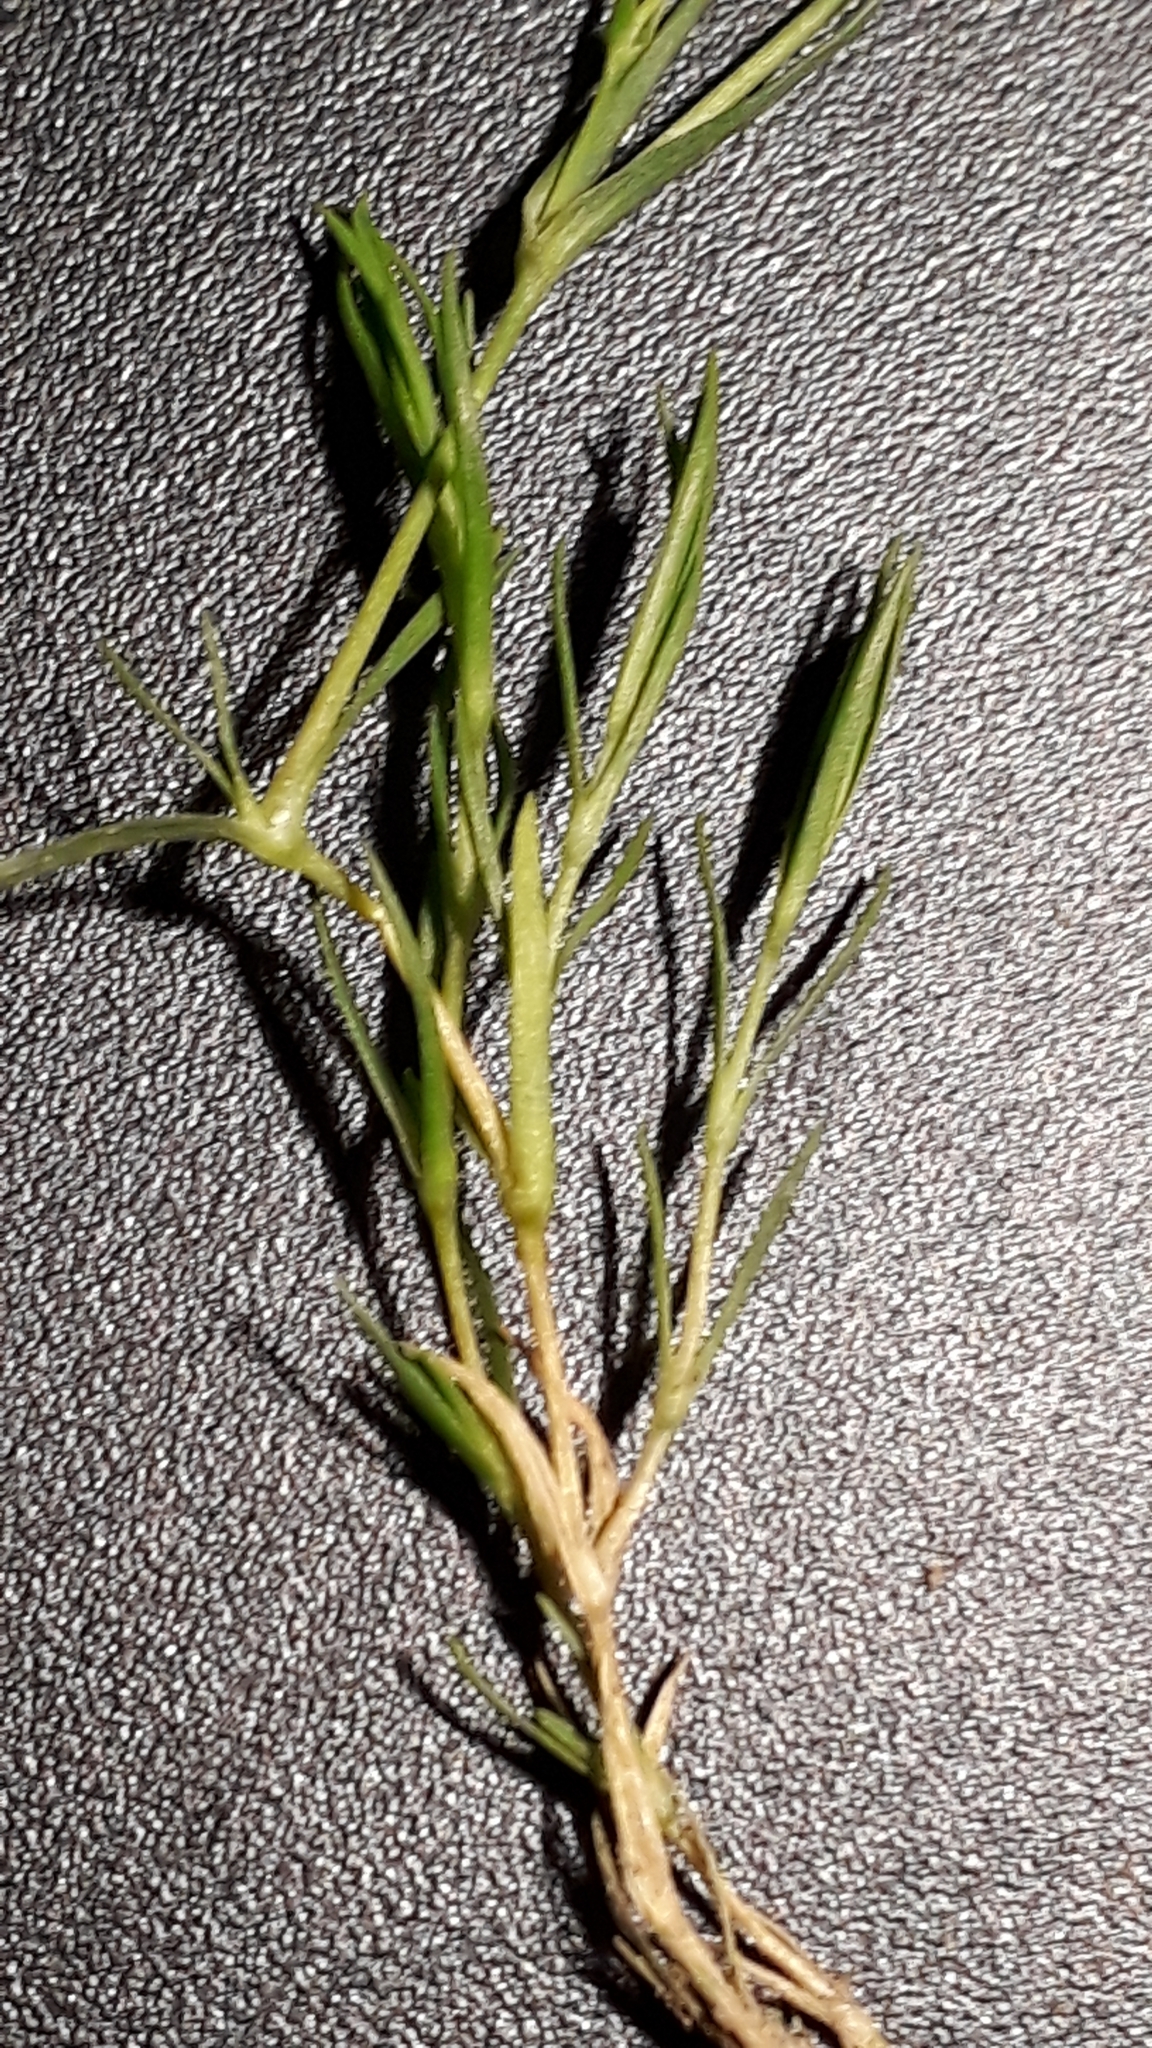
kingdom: Plantae
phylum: Tracheophyta
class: Magnoliopsida
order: Caryophyllales
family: Caryophyllaceae
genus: Sabulina
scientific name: Sabulina verna
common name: Spring sandwort
